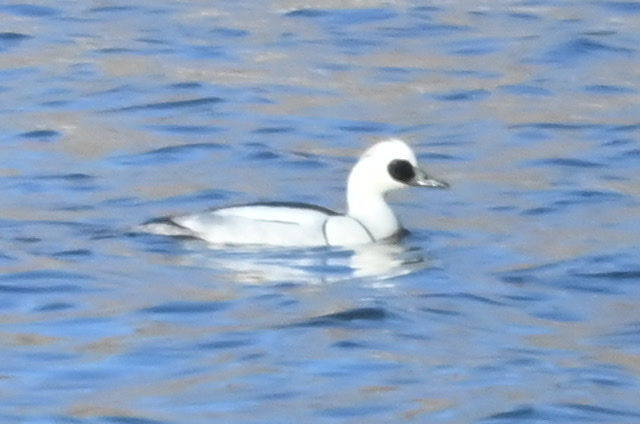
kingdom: Animalia
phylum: Chordata
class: Aves
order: Anseriformes
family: Anatidae
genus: Mergellus
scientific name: Mergellus albellus
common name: Smew
